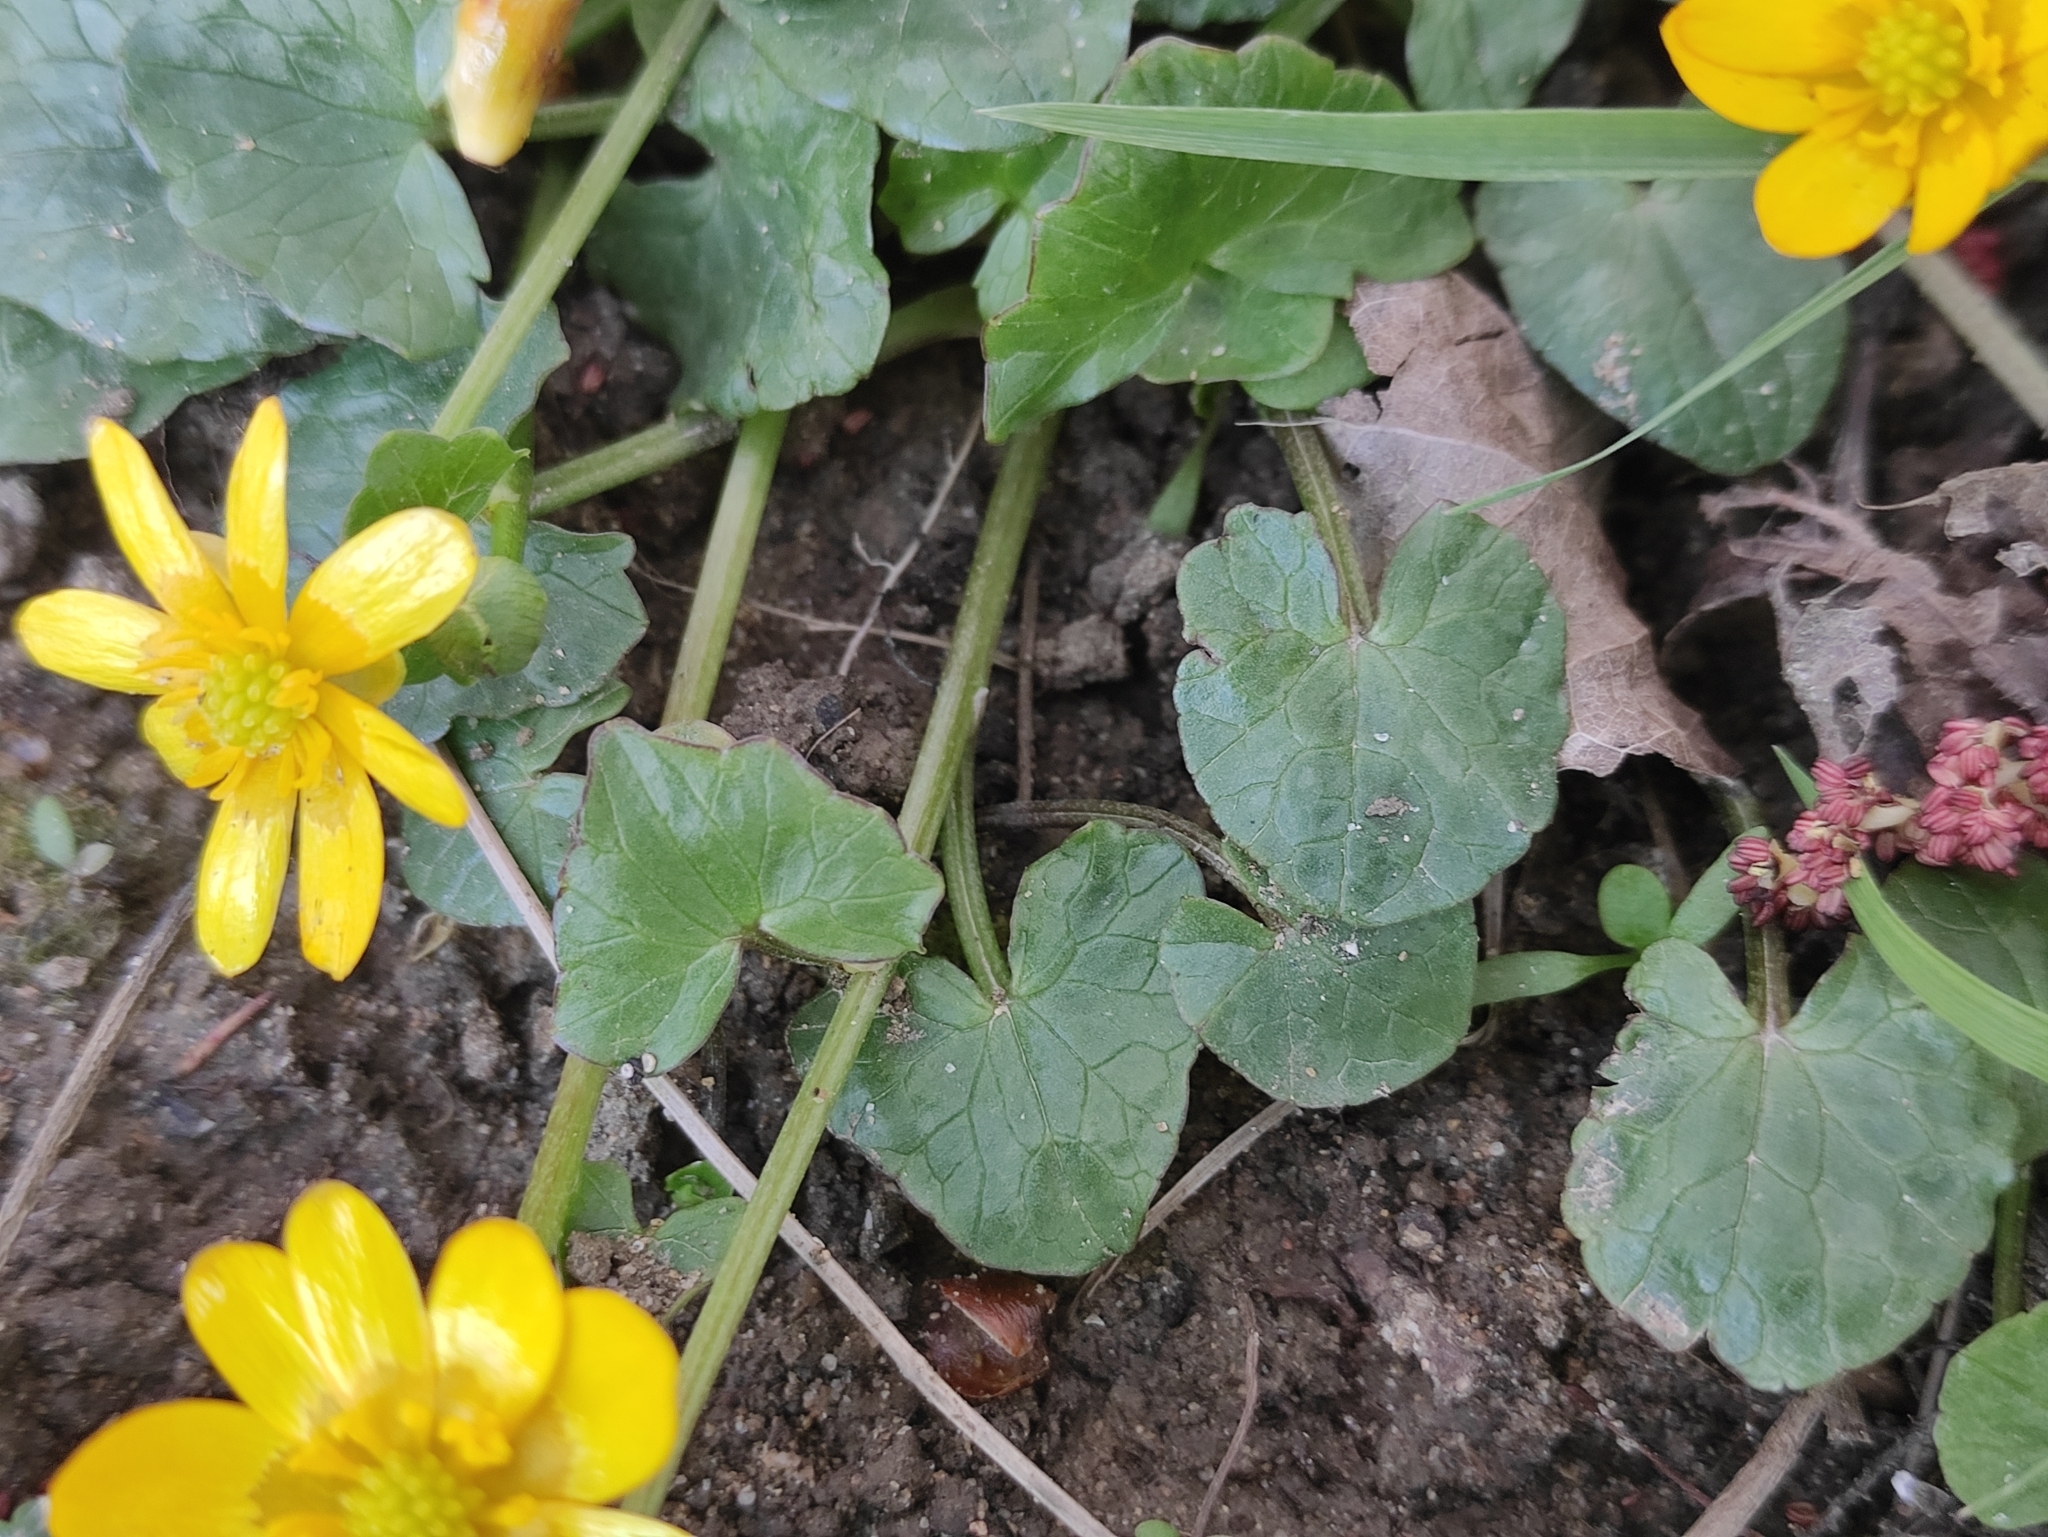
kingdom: Plantae
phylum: Tracheophyta
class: Magnoliopsida
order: Ranunculales
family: Ranunculaceae
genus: Ficaria
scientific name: Ficaria verna
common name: Lesser celandine
